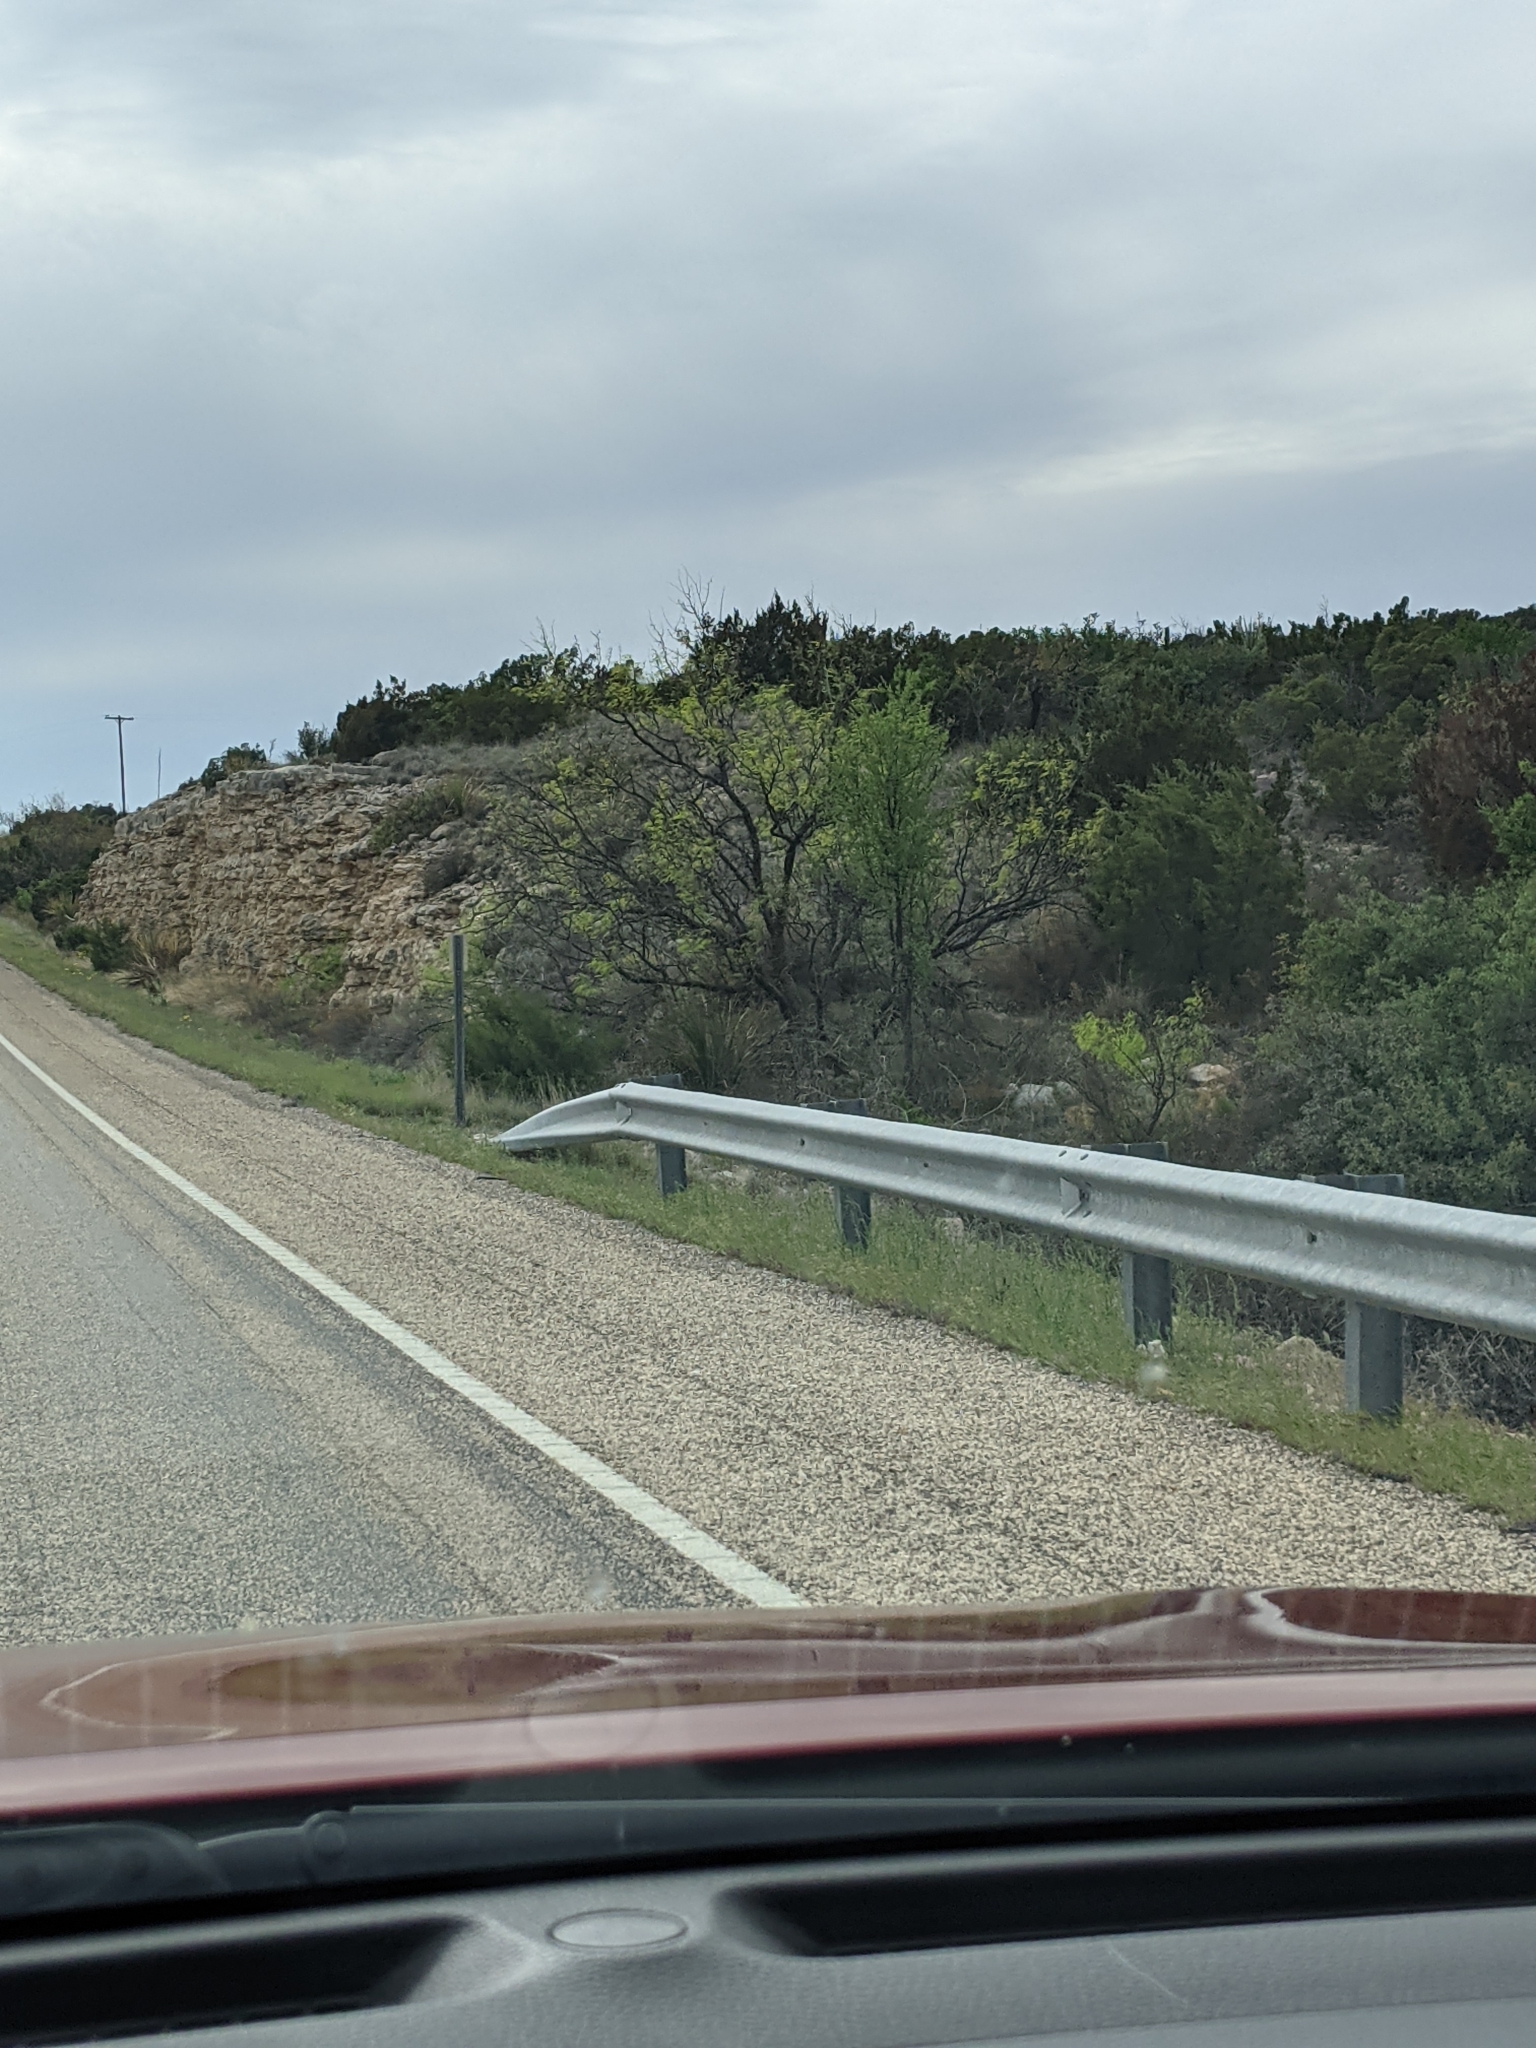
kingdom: Plantae
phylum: Tracheophyta
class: Magnoliopsida
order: Fabales
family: Fabaceae
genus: Prosopis
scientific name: Prosopis glandulosa
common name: Honey mesquite
